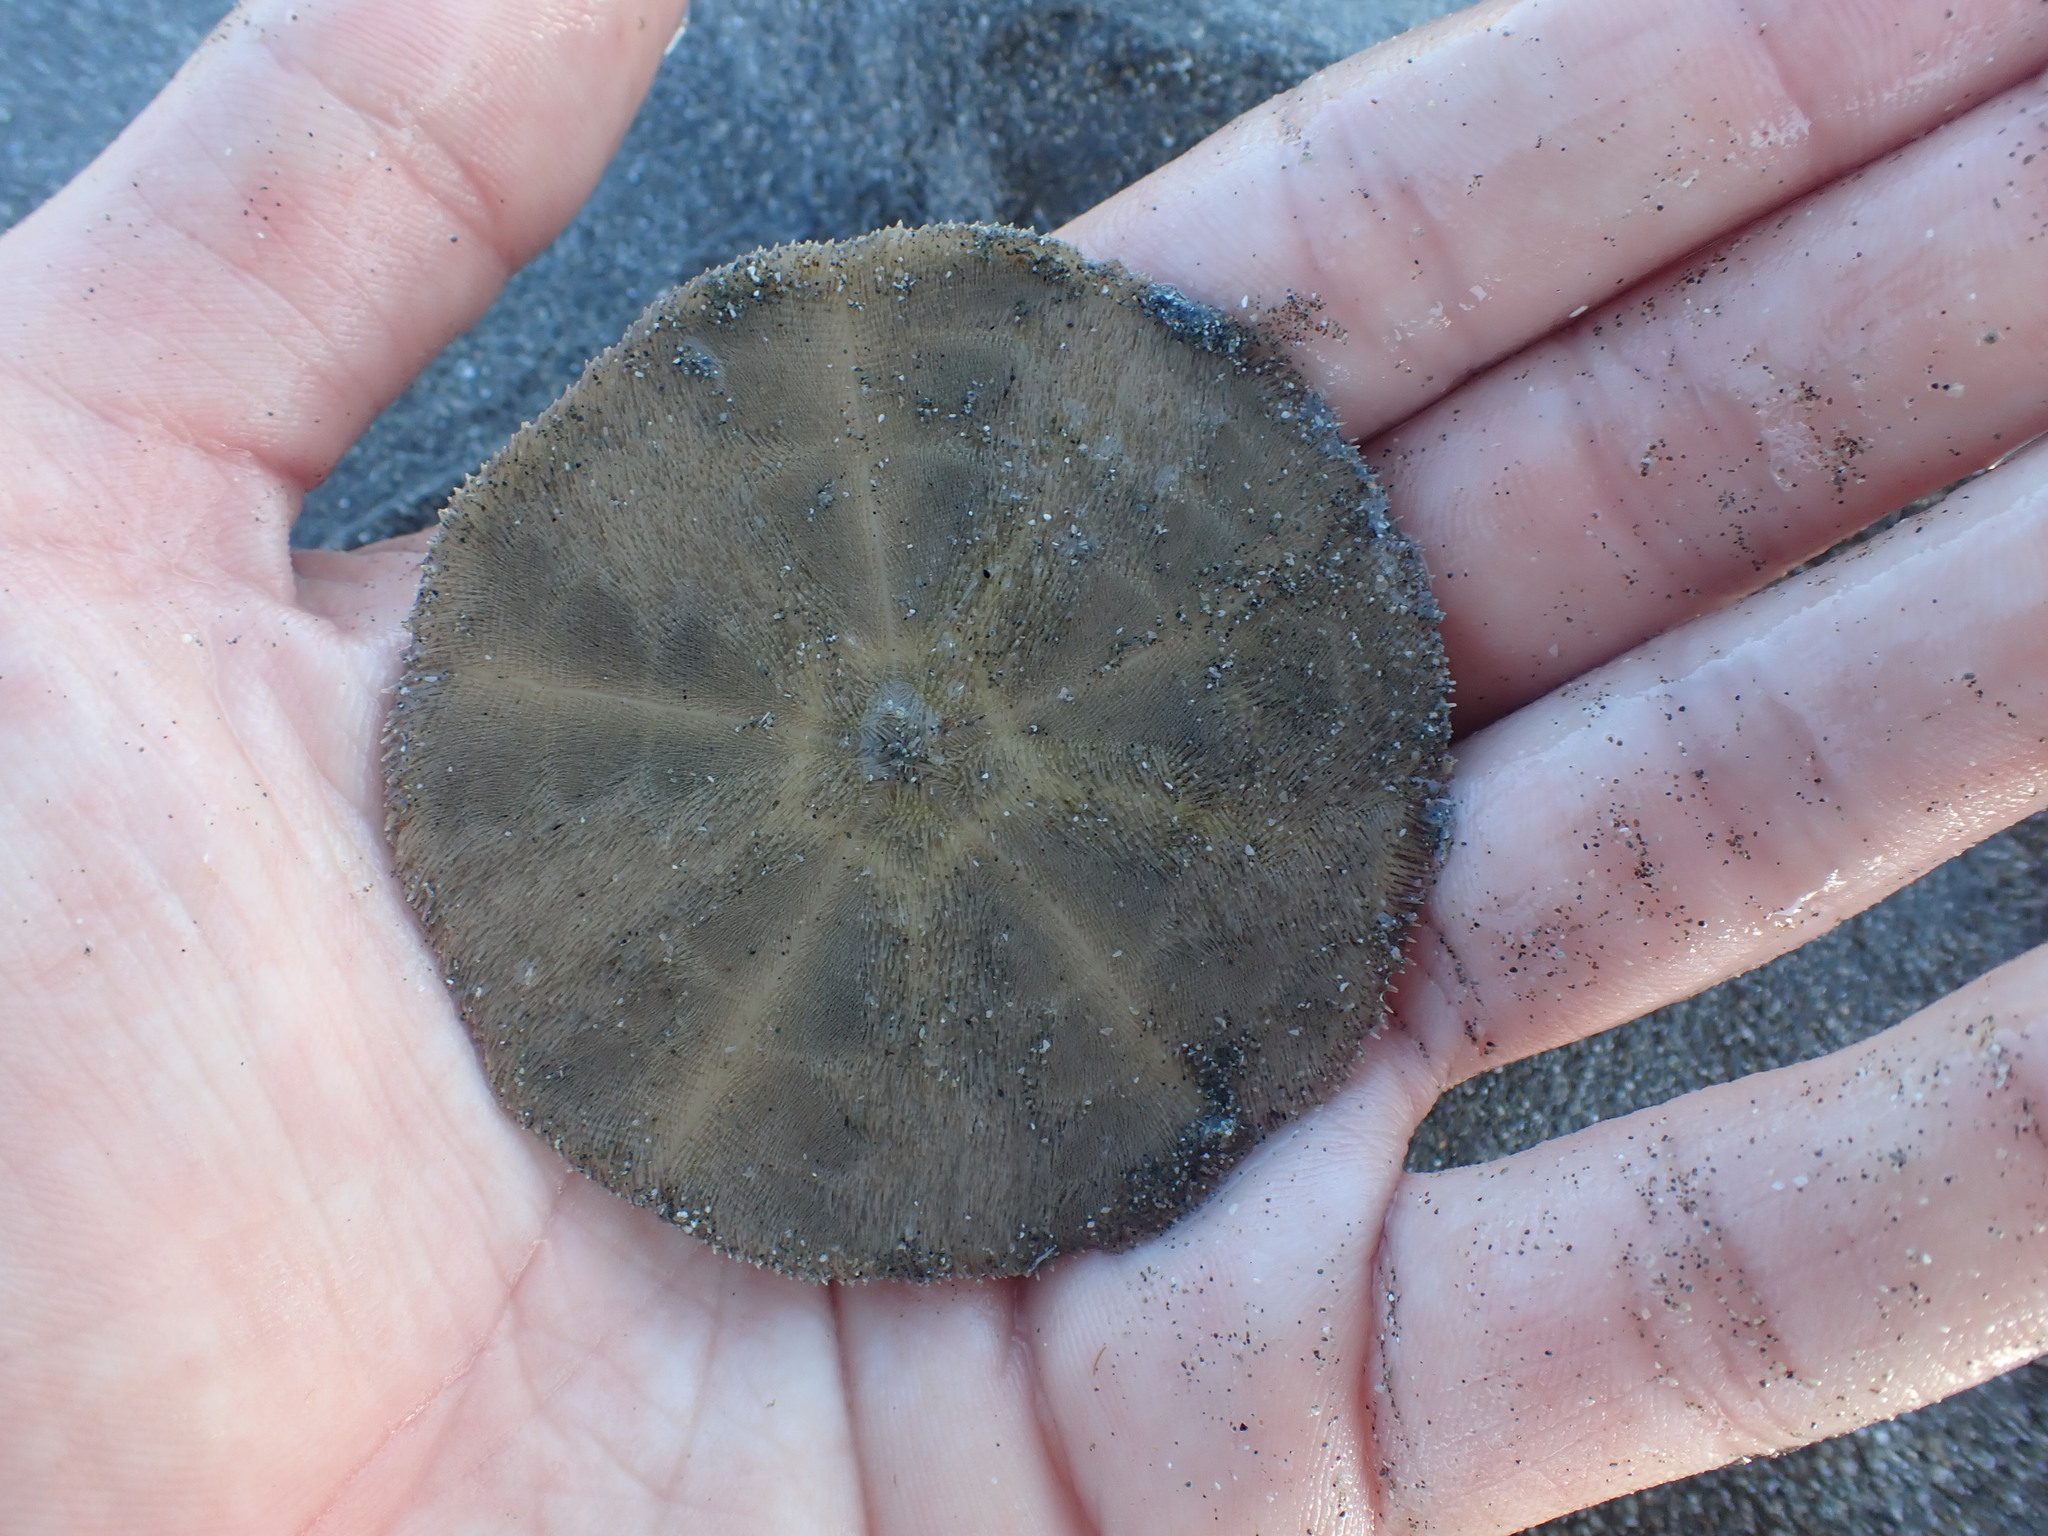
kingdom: Animalia
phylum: Echinodermata
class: Echinoidea
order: Clypeasteroida
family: Clypeasteridae
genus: Fellaster
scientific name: Fellaster zelandiae
